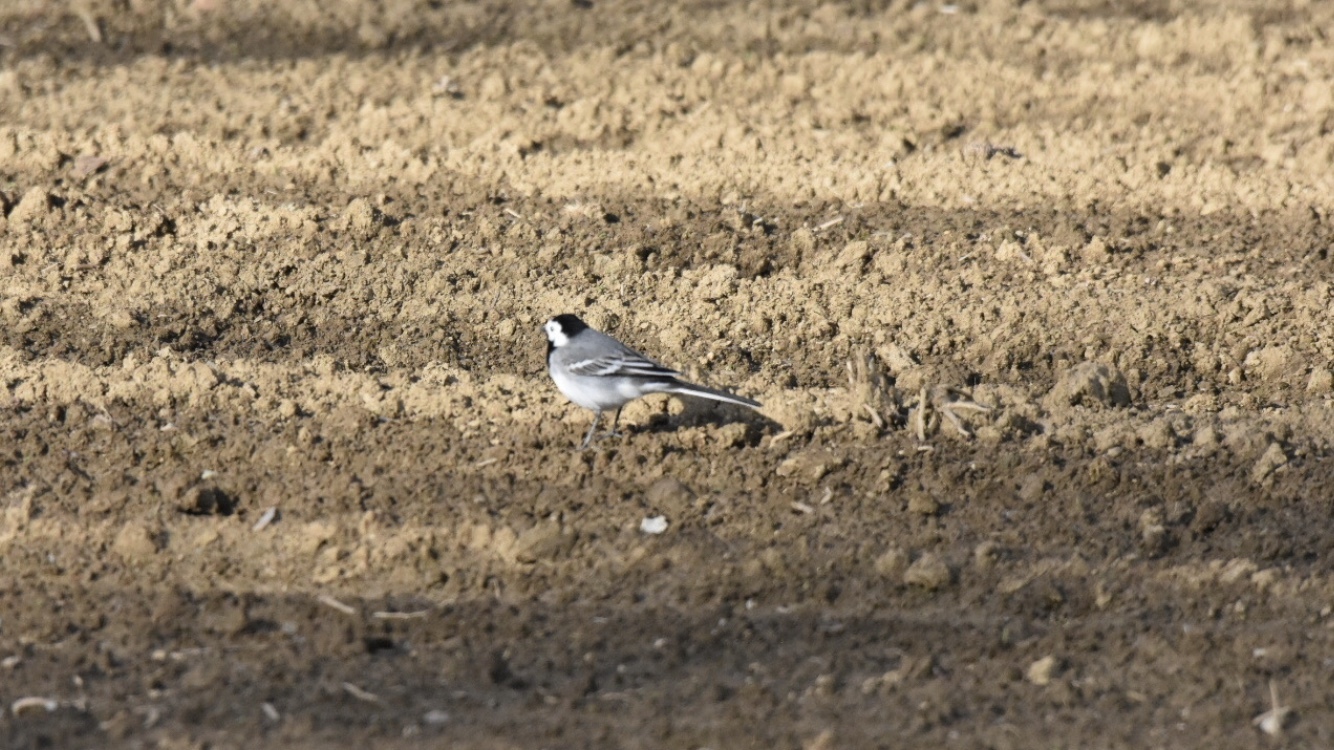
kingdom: Animalia
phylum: Chordata
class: Aves
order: Passeriformes
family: Motacillidae
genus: Motacilla
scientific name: Motacilla alba
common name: White wagtail
